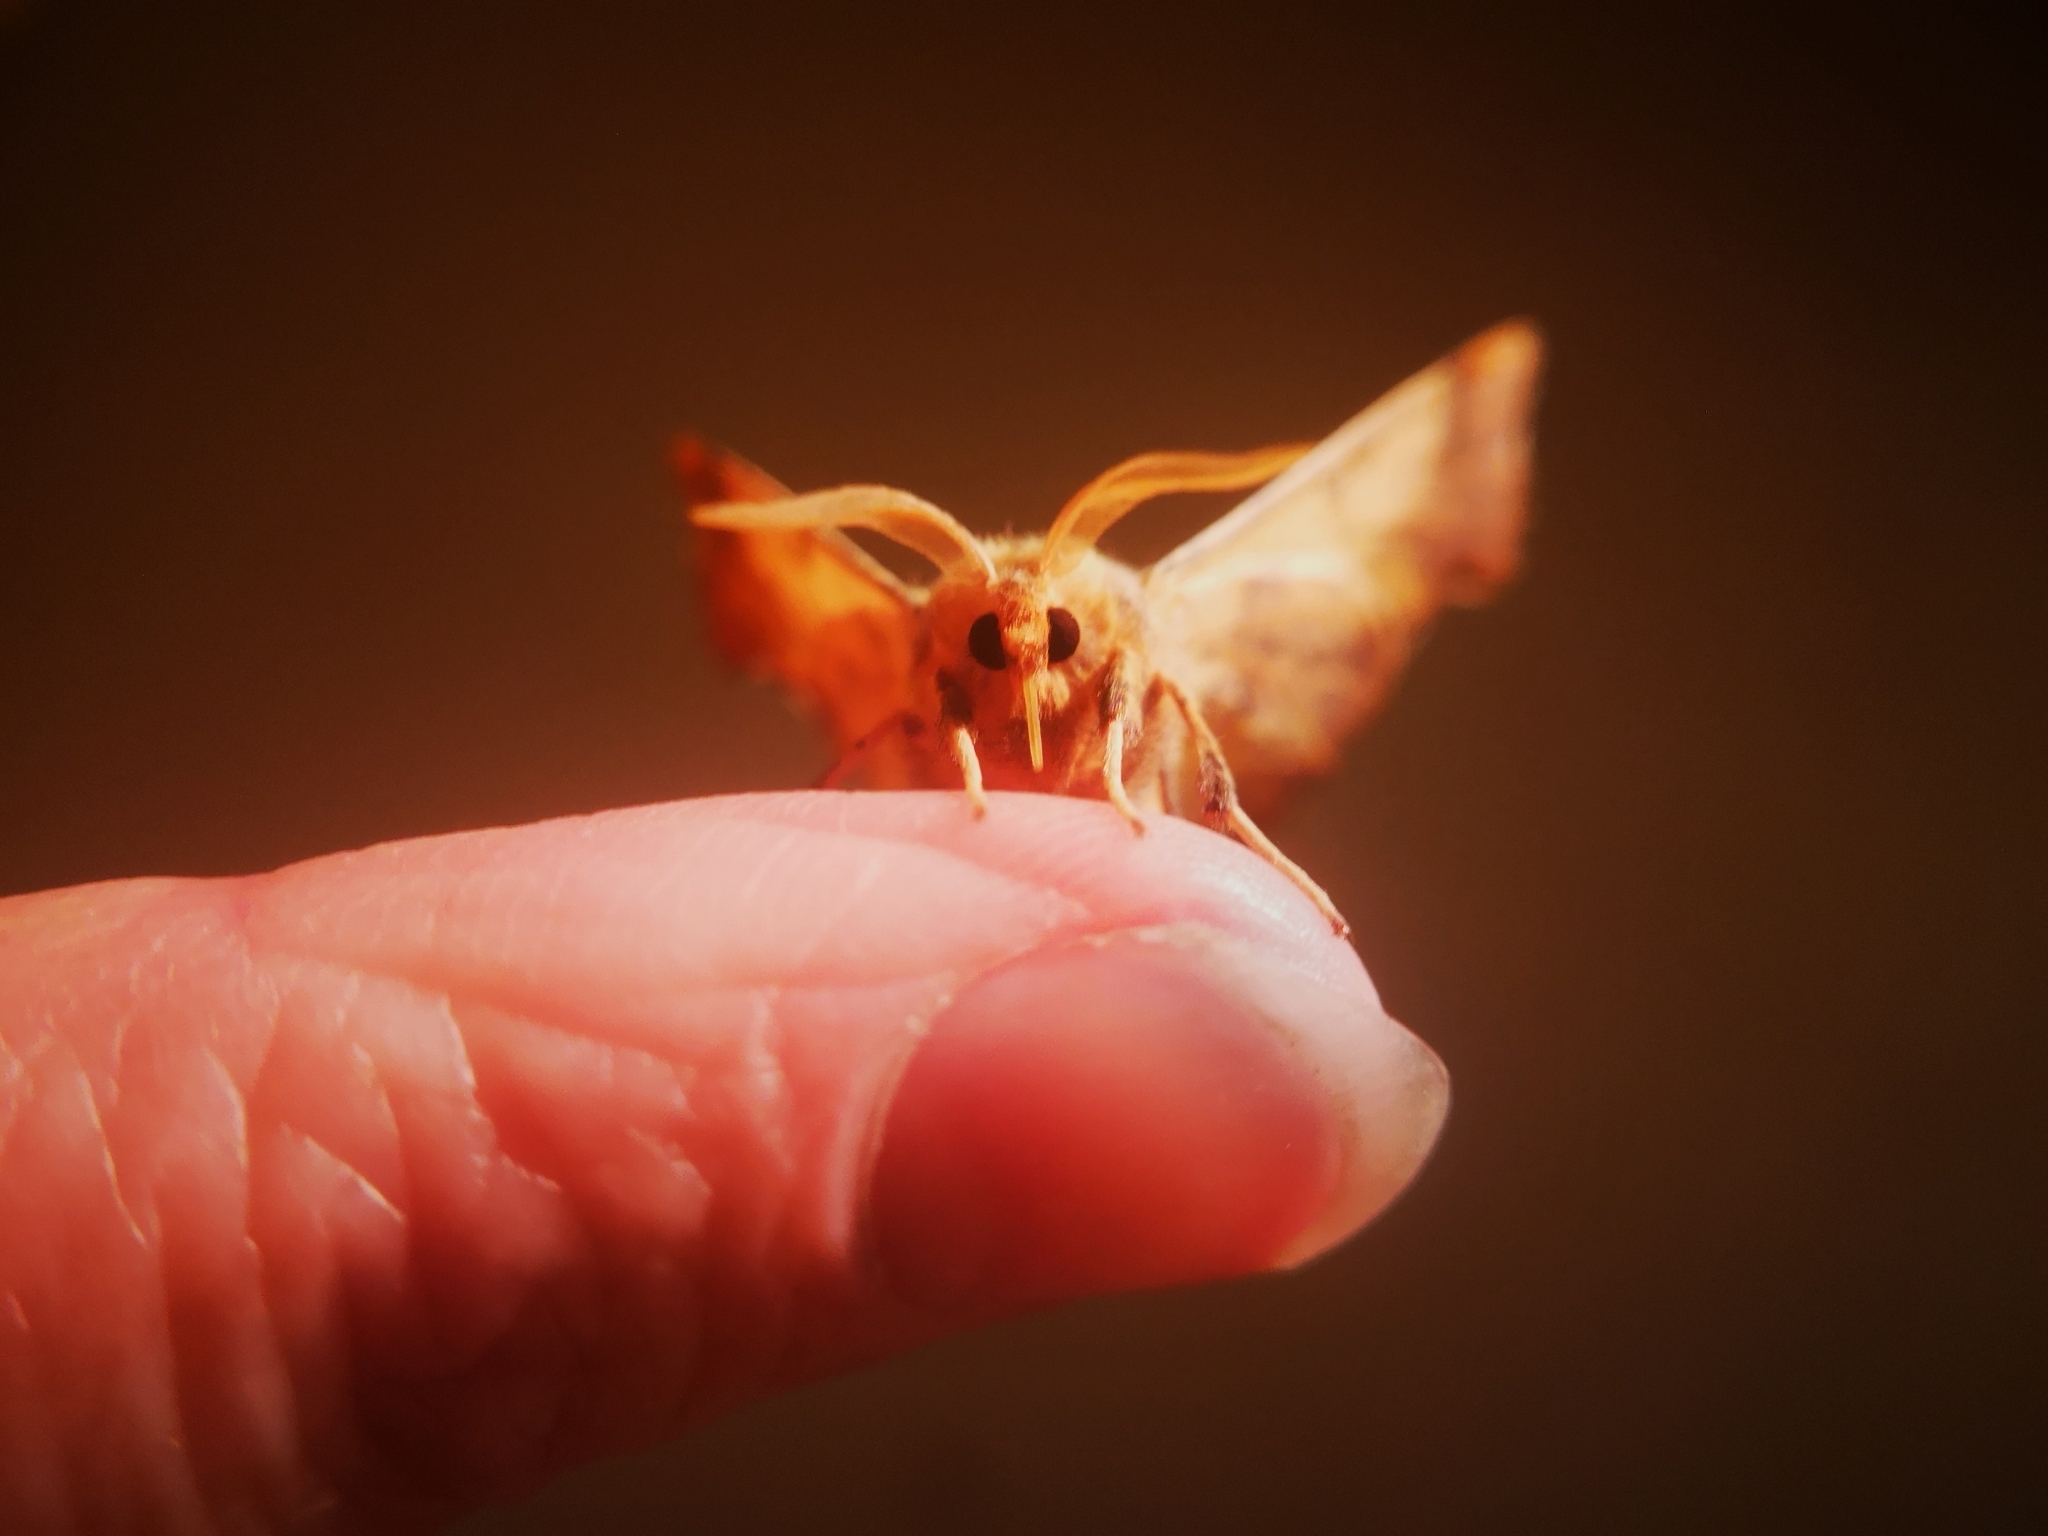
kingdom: Animalia
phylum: Arthropoda
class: Insecta
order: Lepidoptera
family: Geometridae
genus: Ennomos
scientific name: Ennomos magnaria
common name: Maple spanworm
